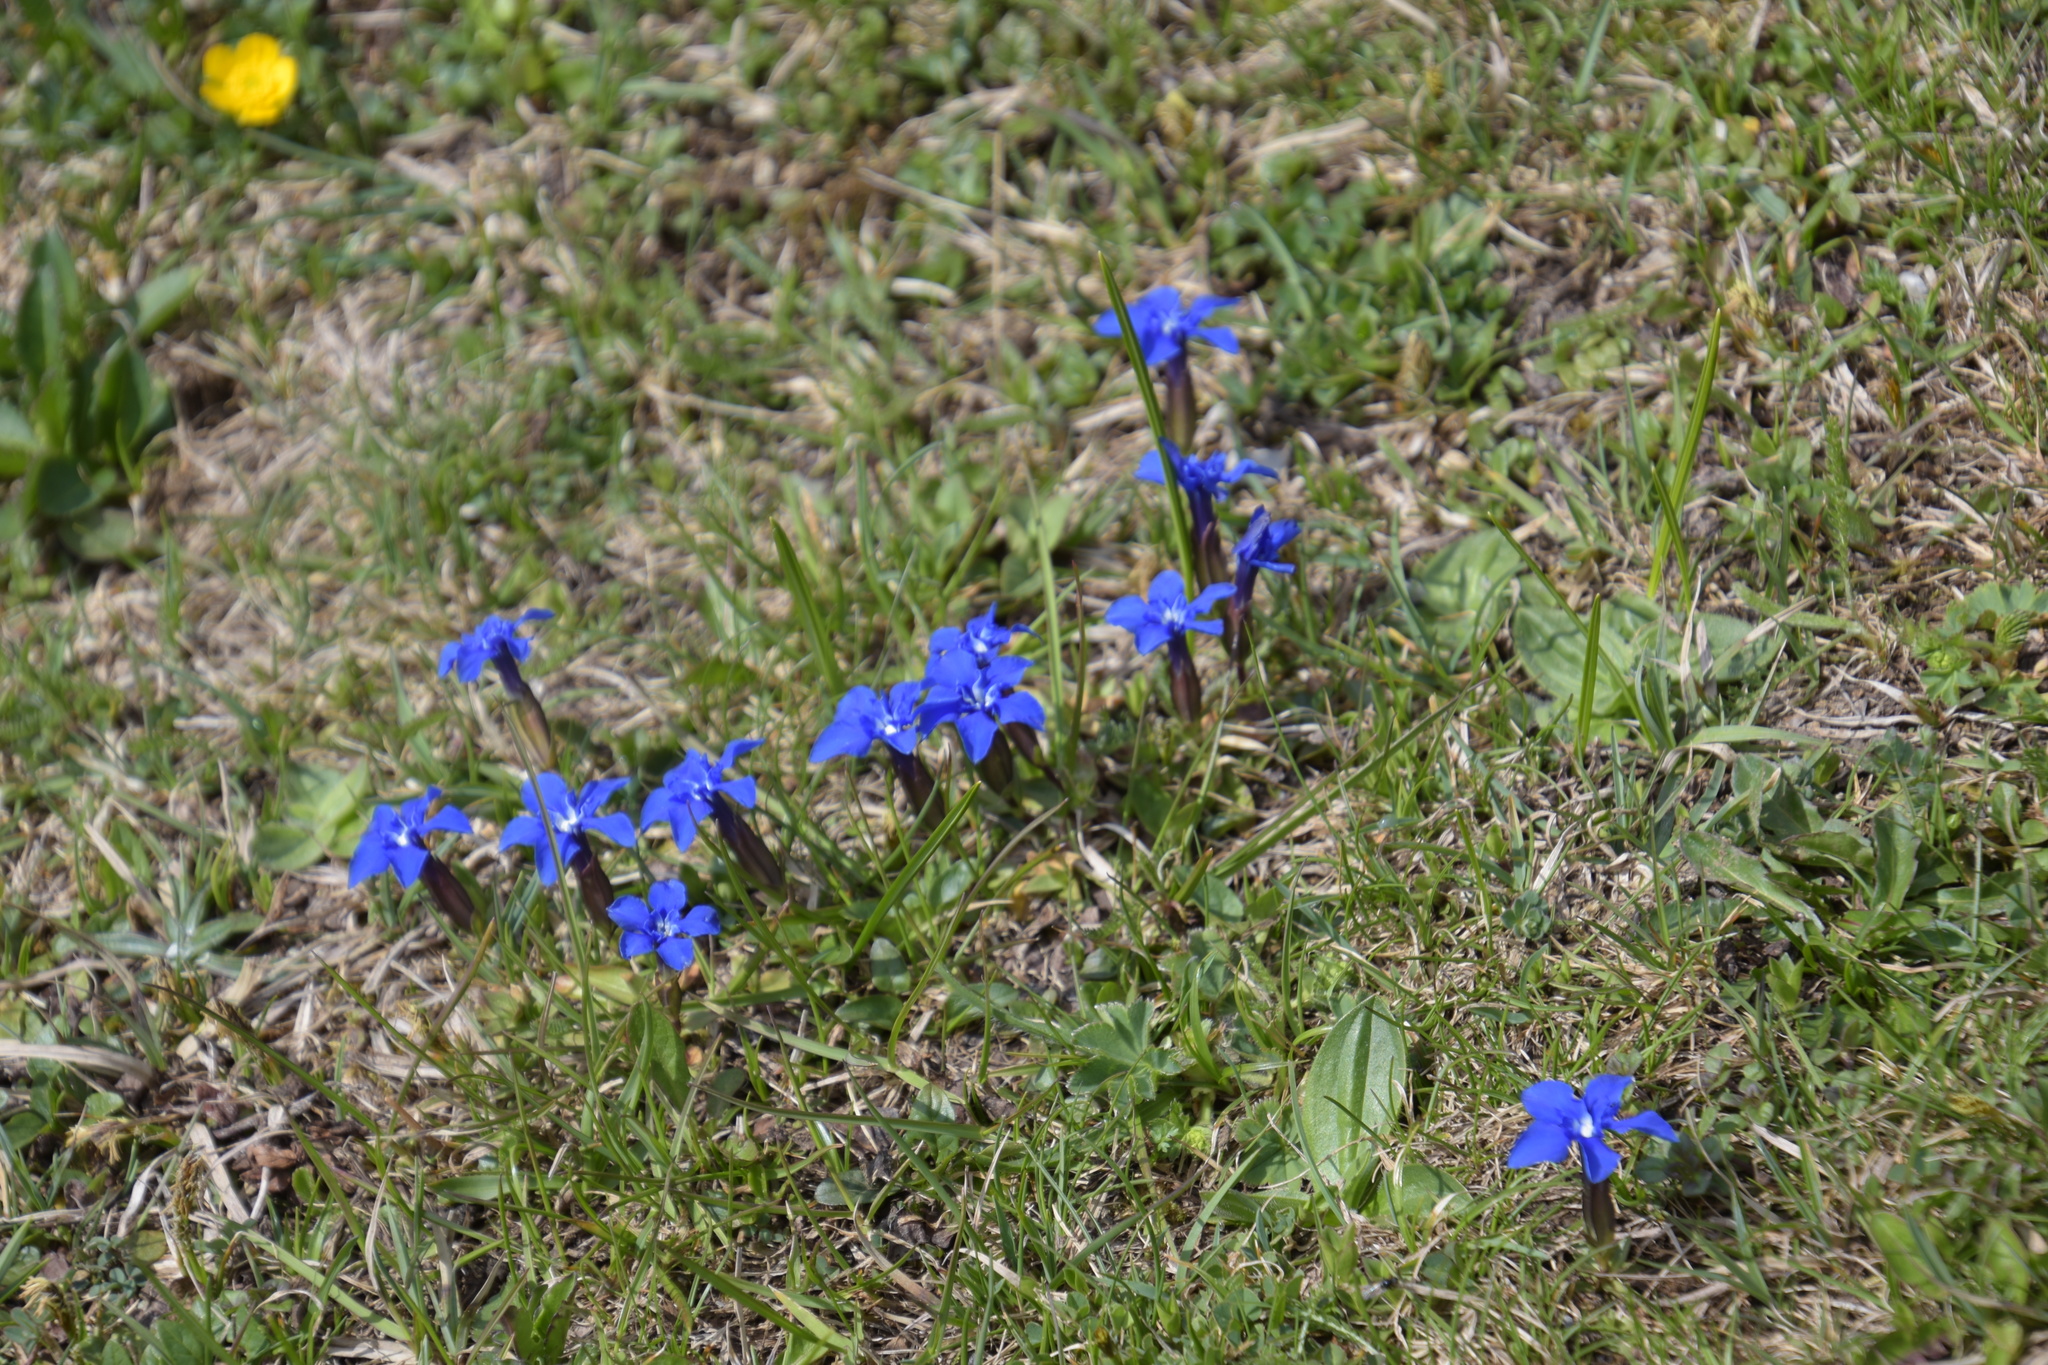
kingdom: Plantae
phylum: Tracheophyta
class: Magnoliopsida
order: Gentianales
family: Gentianaceae
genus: Gentiana
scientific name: Gentiana verna
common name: Spring gentian
